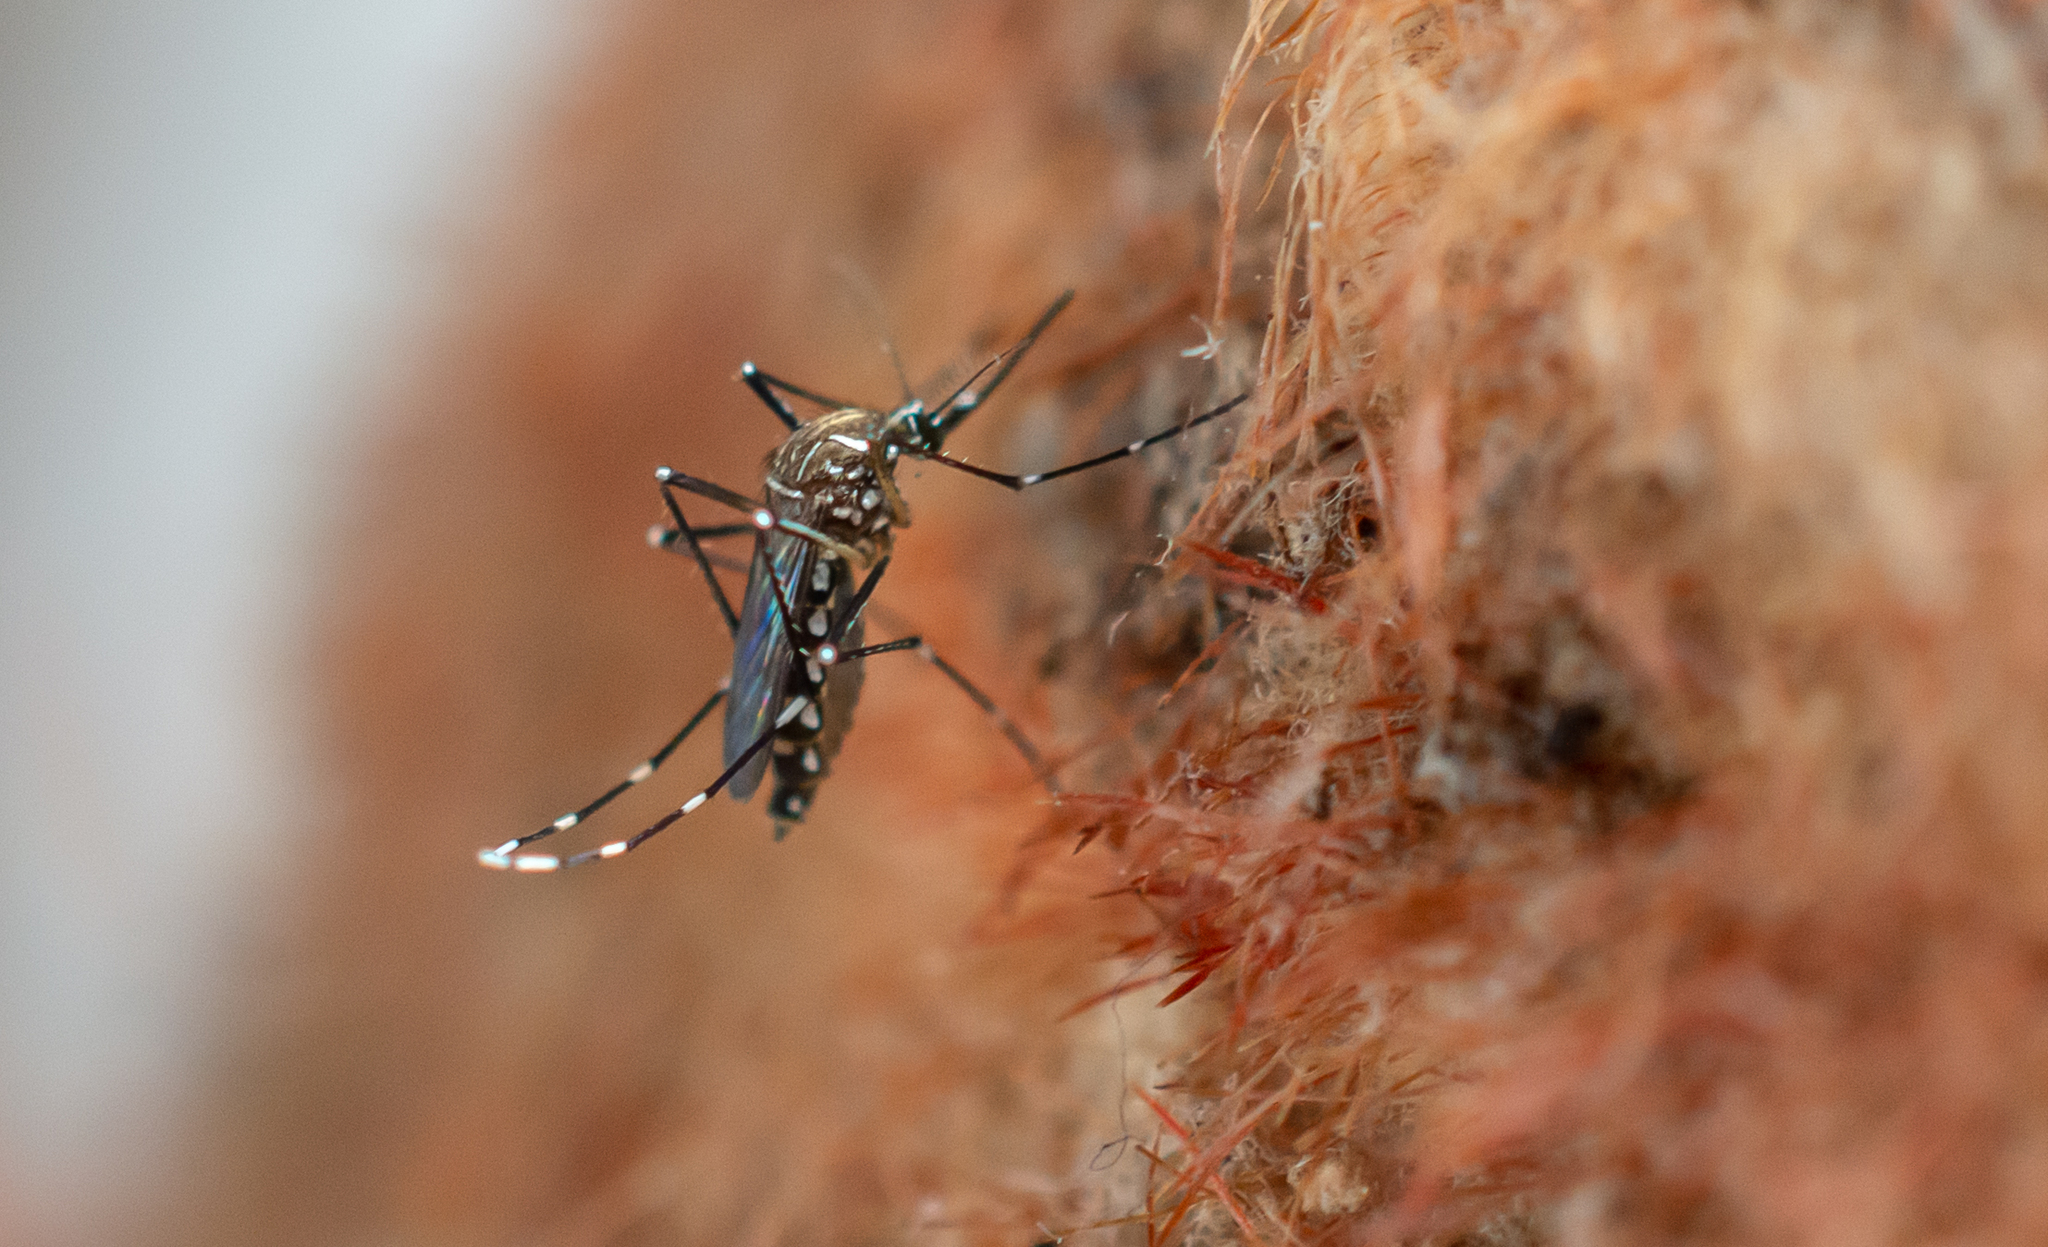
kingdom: Animalia
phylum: Arthropoda
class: Insecta
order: Diptera
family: Culicidae
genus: Aedes
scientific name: Aedes aegypti
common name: Yellow fever mosquito
